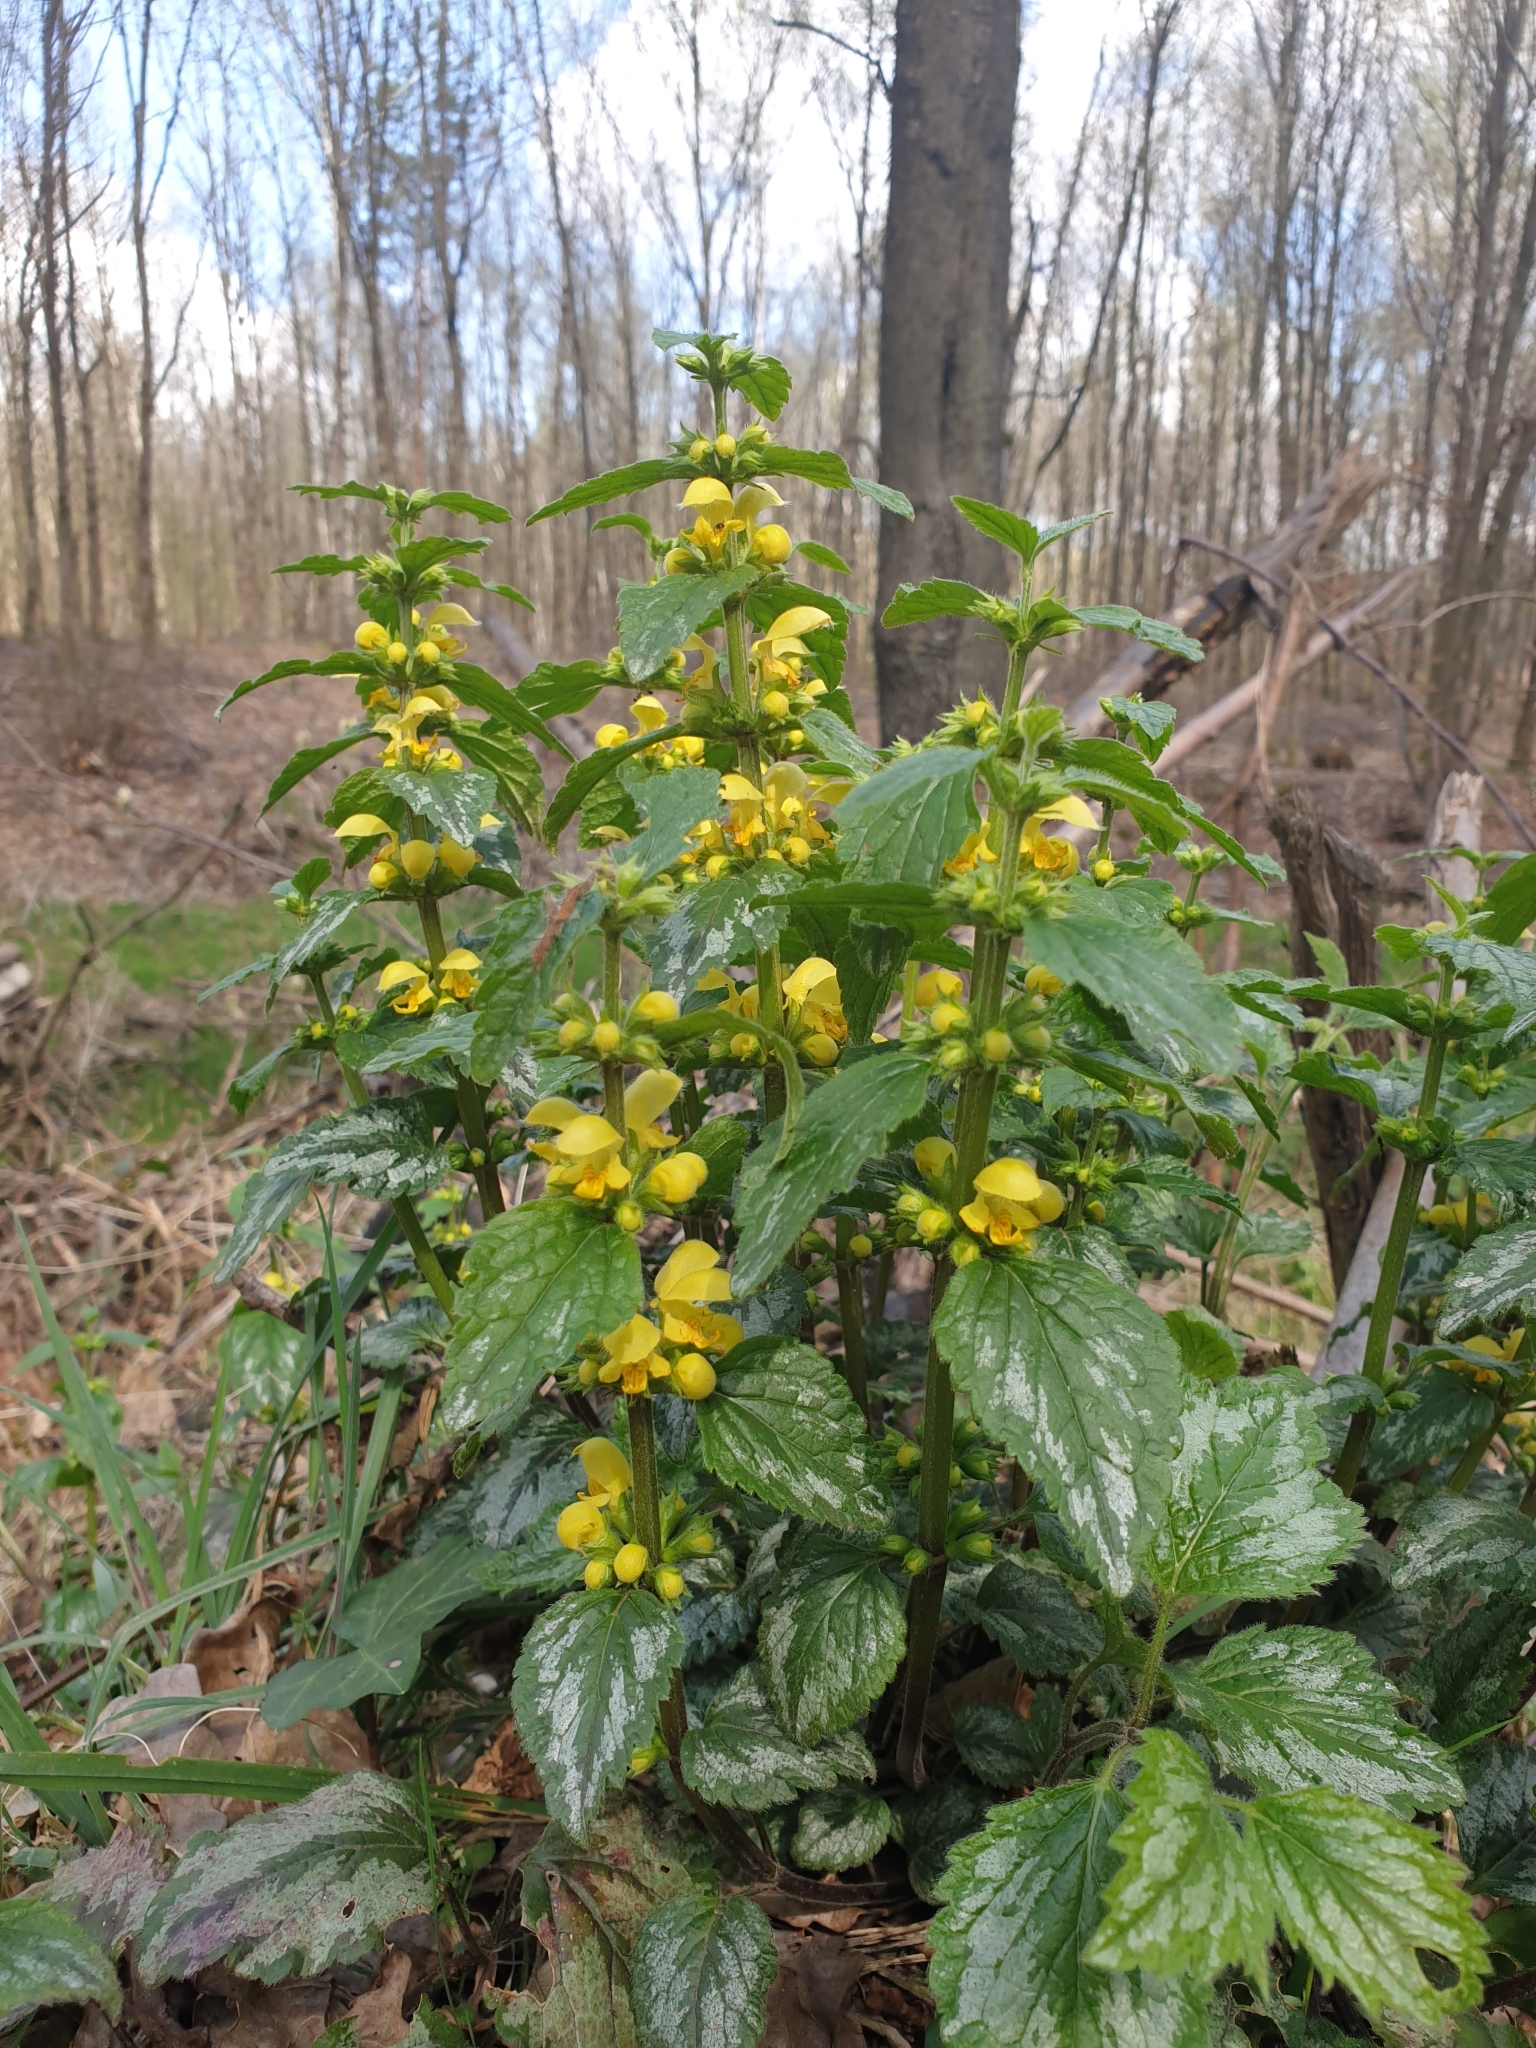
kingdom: Plantae
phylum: Tracheophyta
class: Magnoliopsida
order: Lamiales
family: Lamiaceae
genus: Lamium
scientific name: Lamium galeobdolon
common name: Yellow archangel
